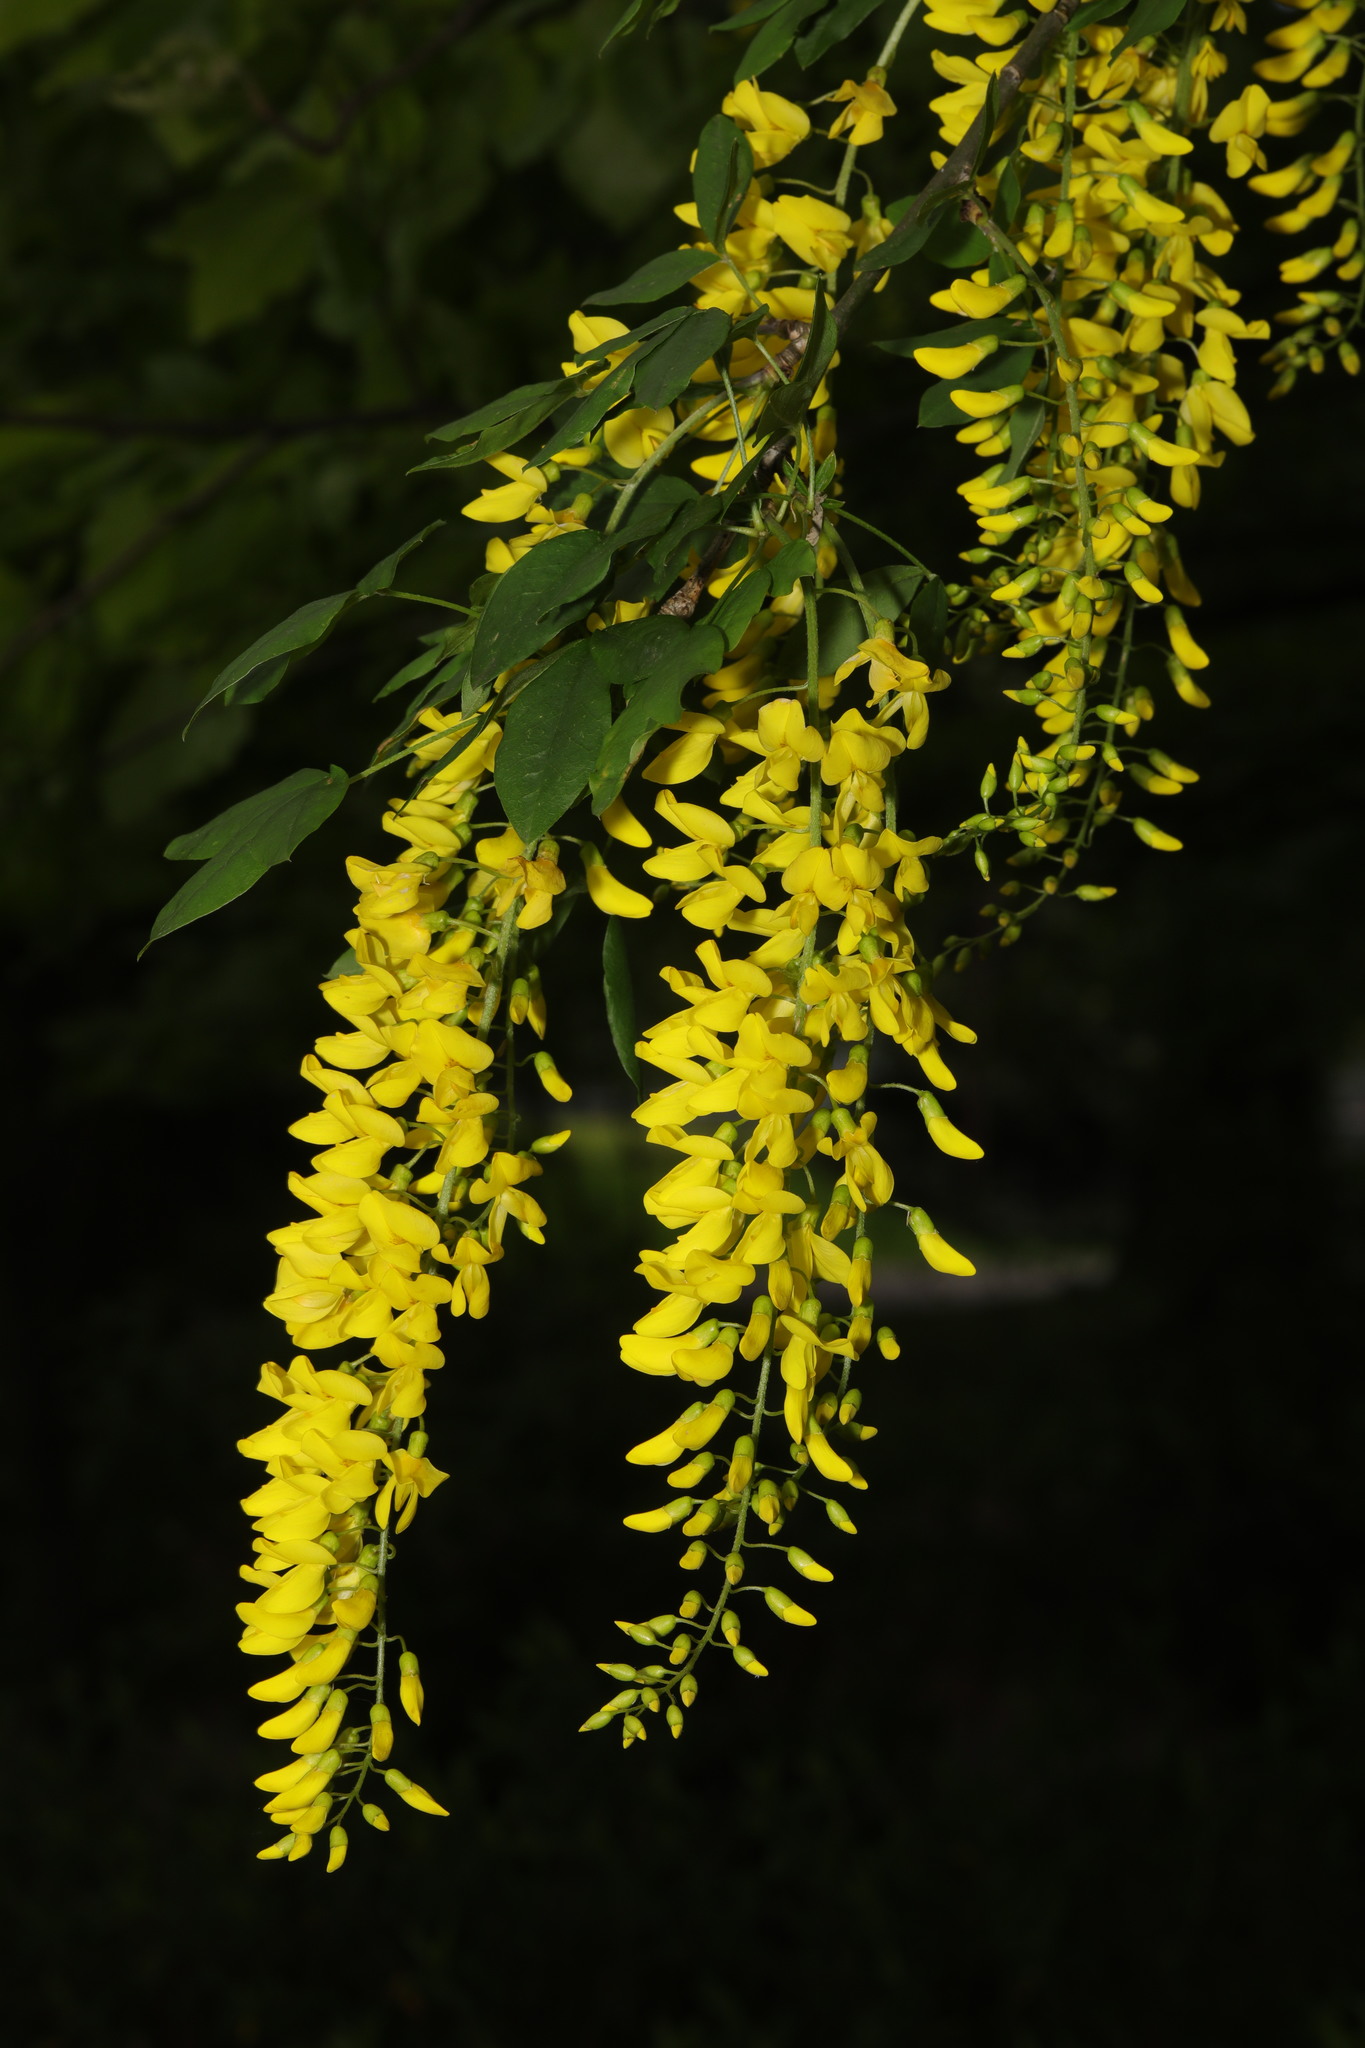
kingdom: Plantae
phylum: Tracheophyta
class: Magnoliopsida
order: Fabales
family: Fabaceae
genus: Laburnum
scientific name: Laburnum anagyroides
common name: Laburnum
